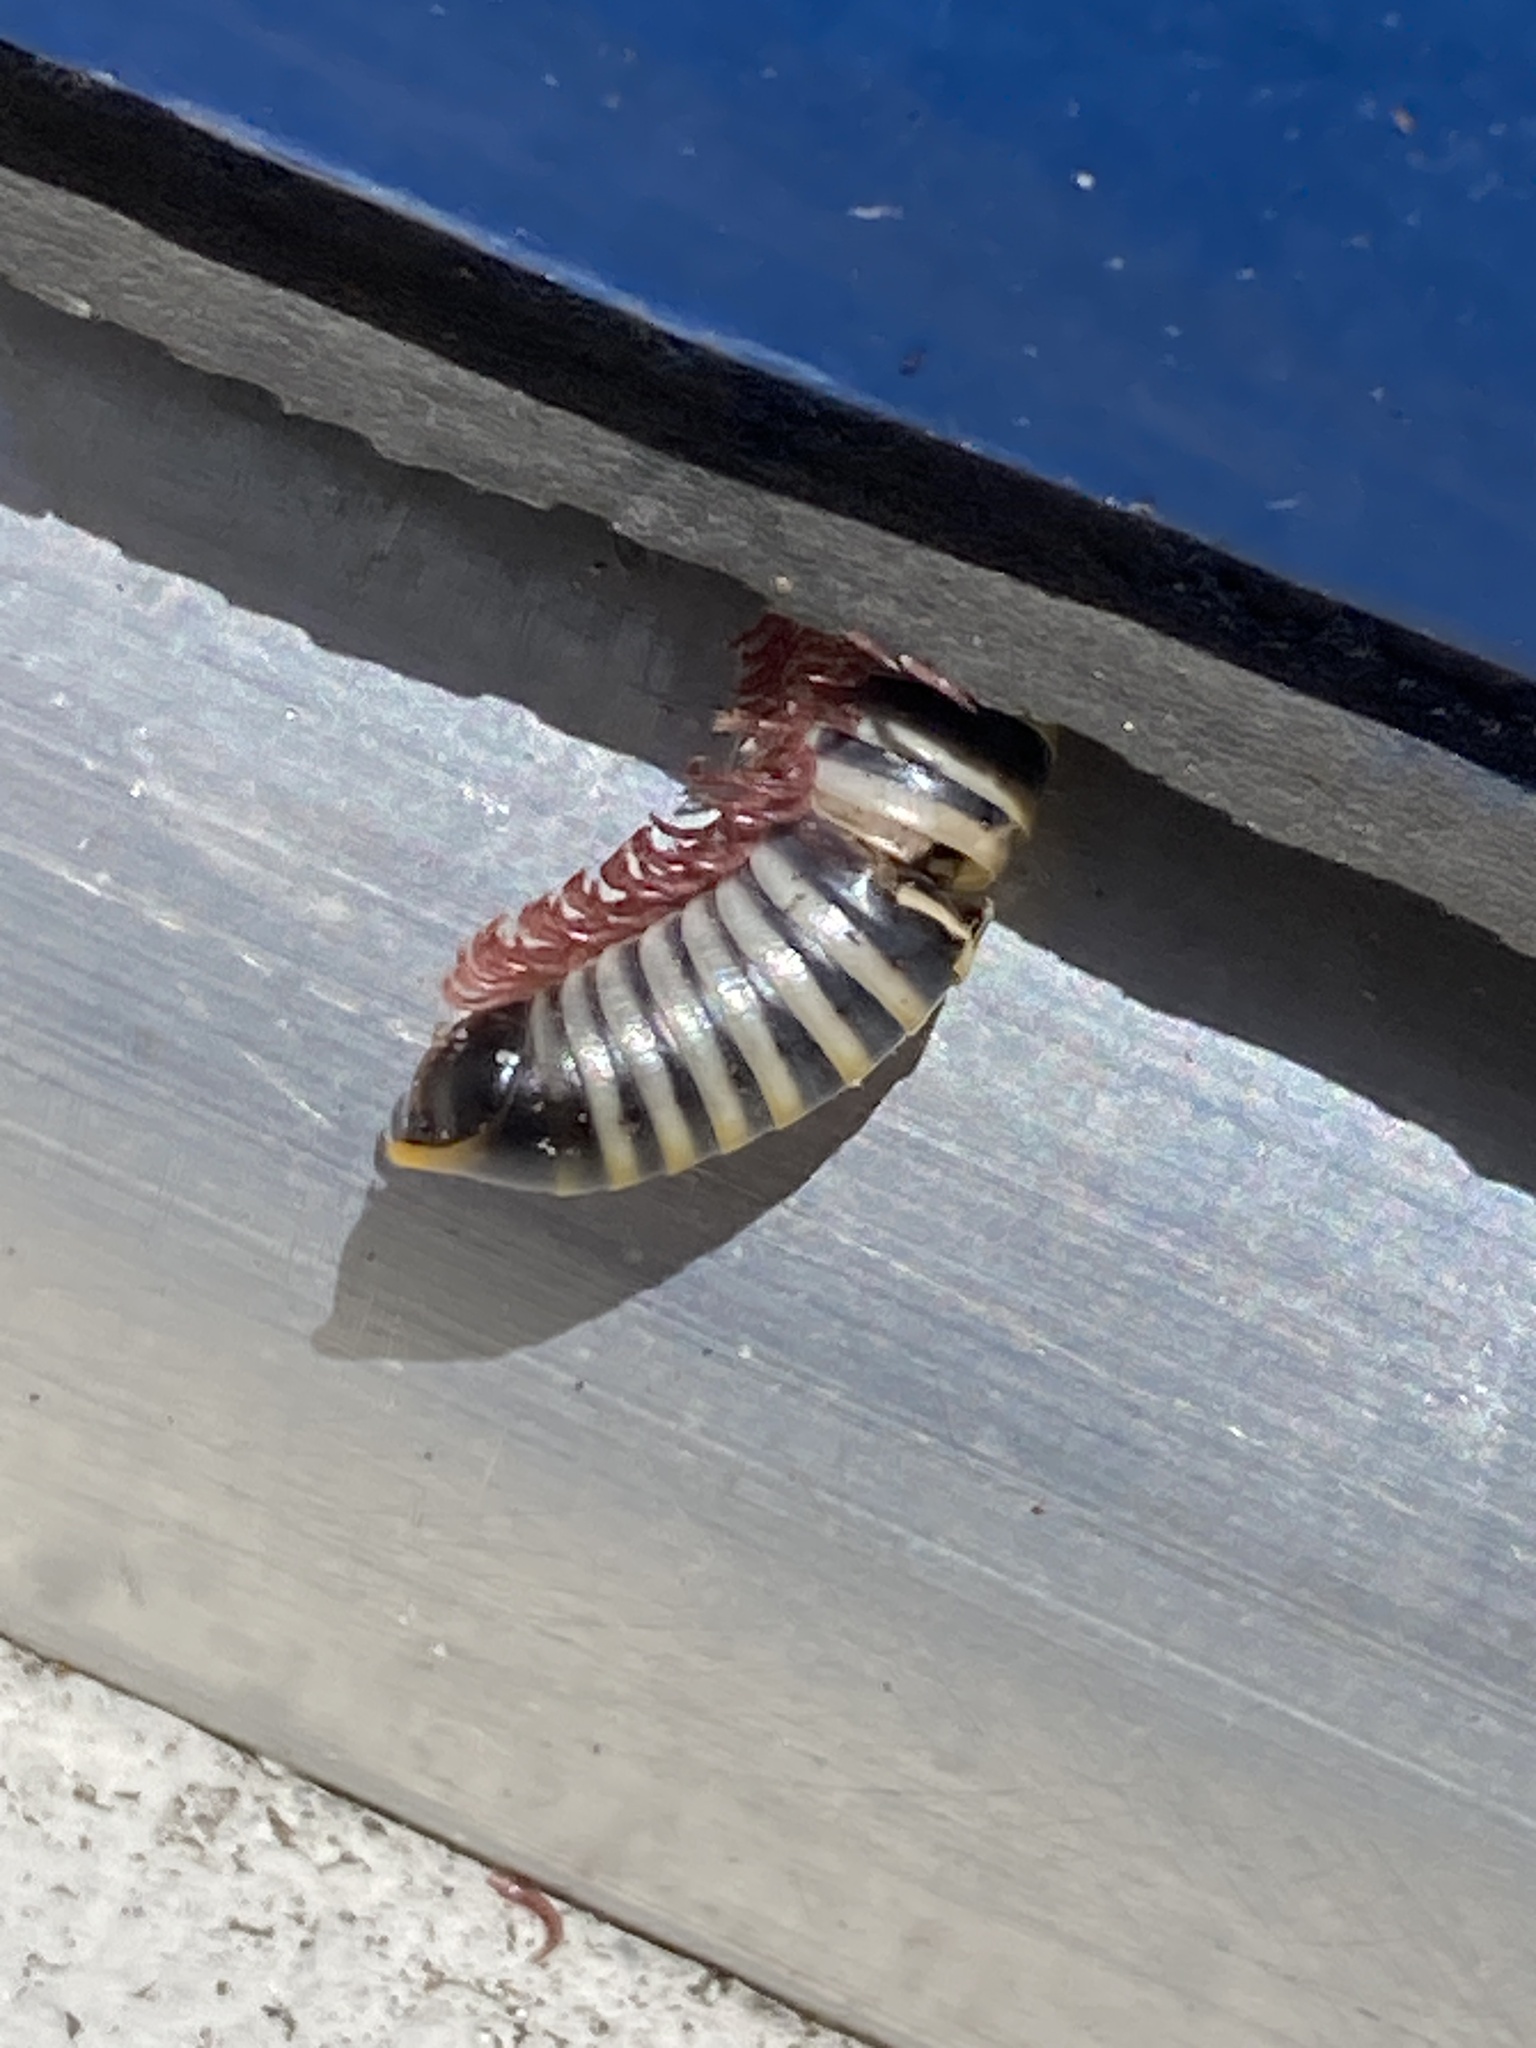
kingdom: Animalia
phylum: Arthropoda
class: Diplopoda
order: Spirobolida
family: Rhinocricidae
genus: Anadenobolus
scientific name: Anadenobolus monilicornis
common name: Caribbean millipede
